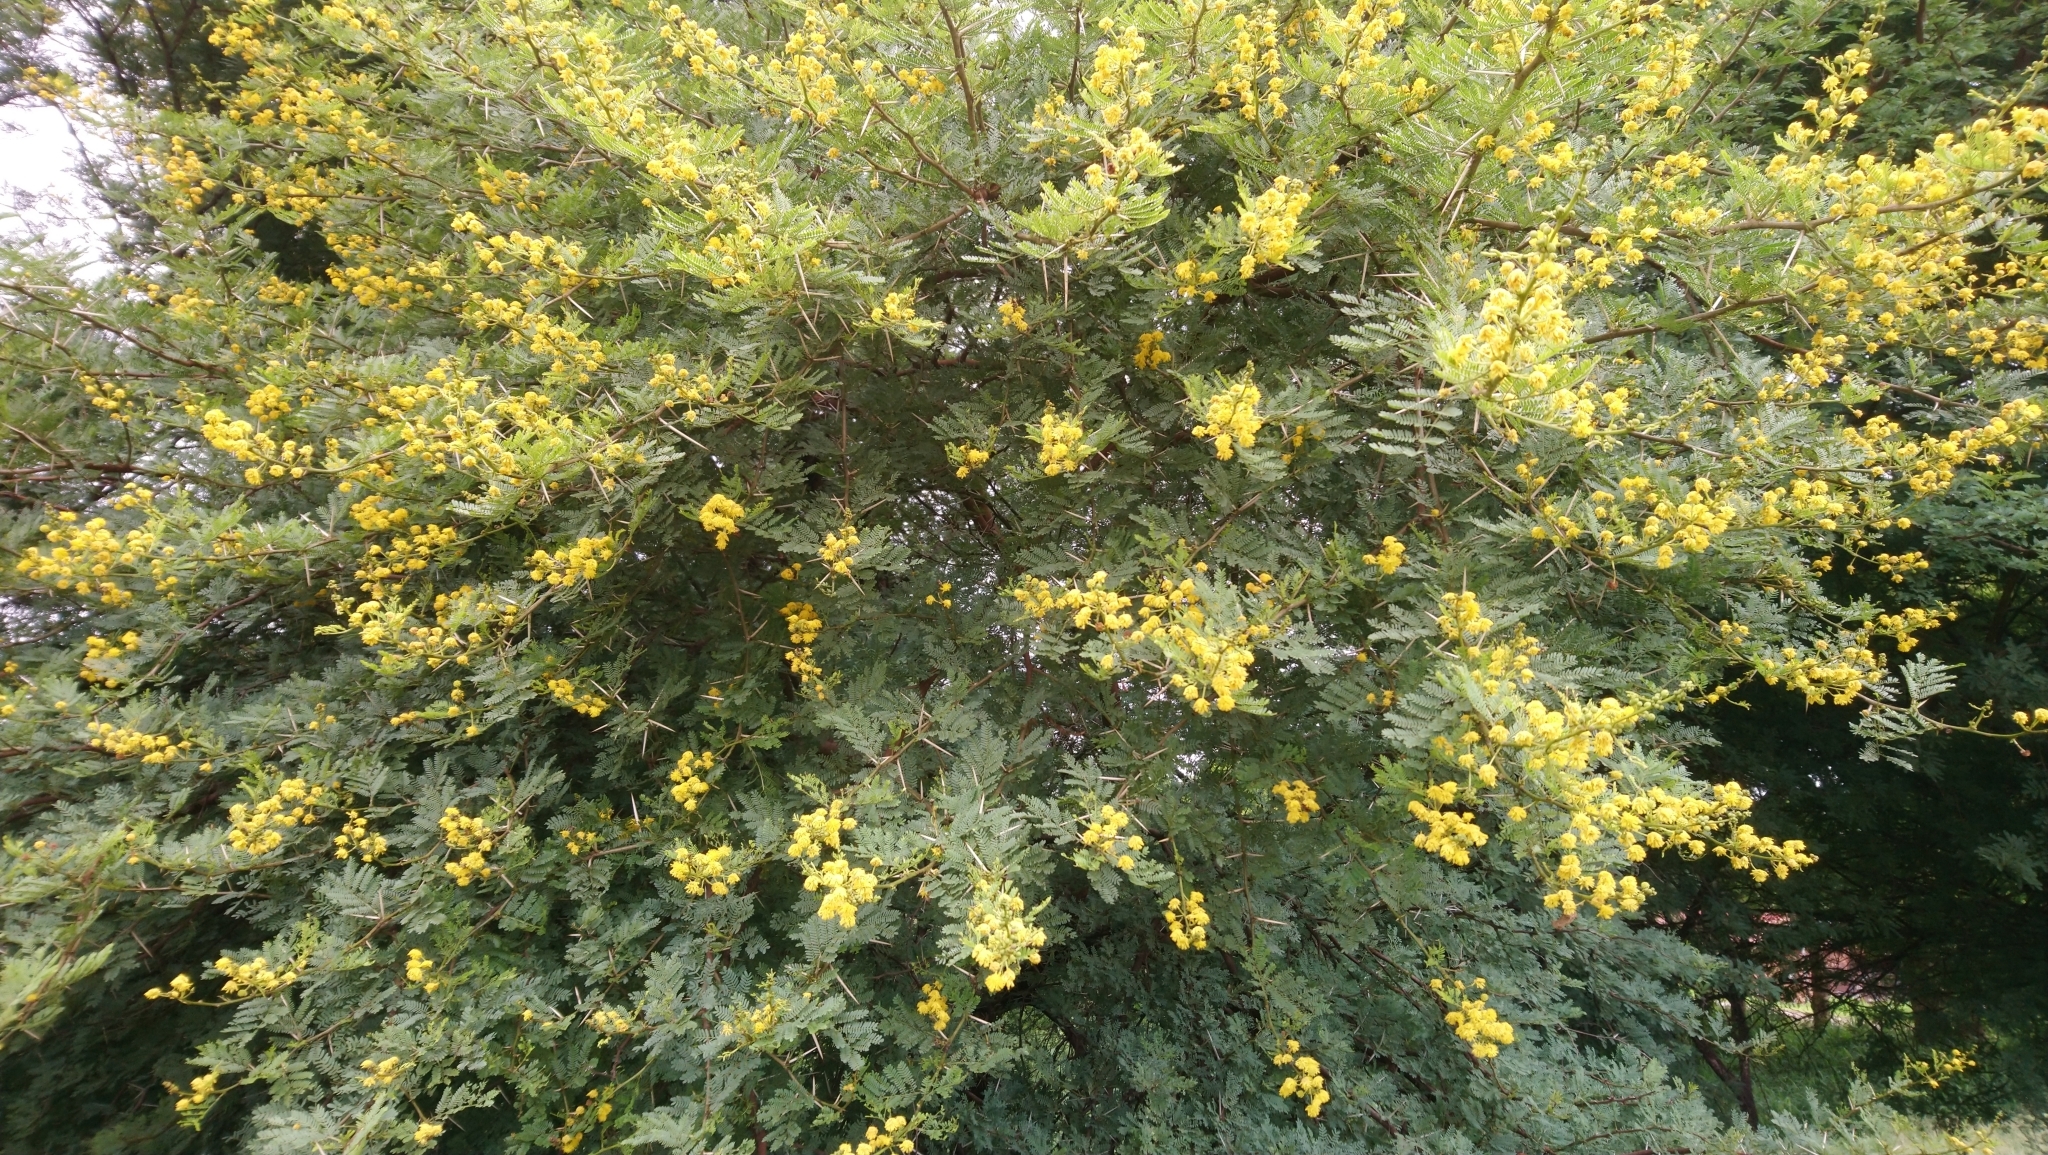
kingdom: Plantae
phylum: Tracheophyta
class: Magnoliopsida
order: Fabales
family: Fabaceae
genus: Vachellia
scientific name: Vachellia karroo
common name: Sweet thorn
